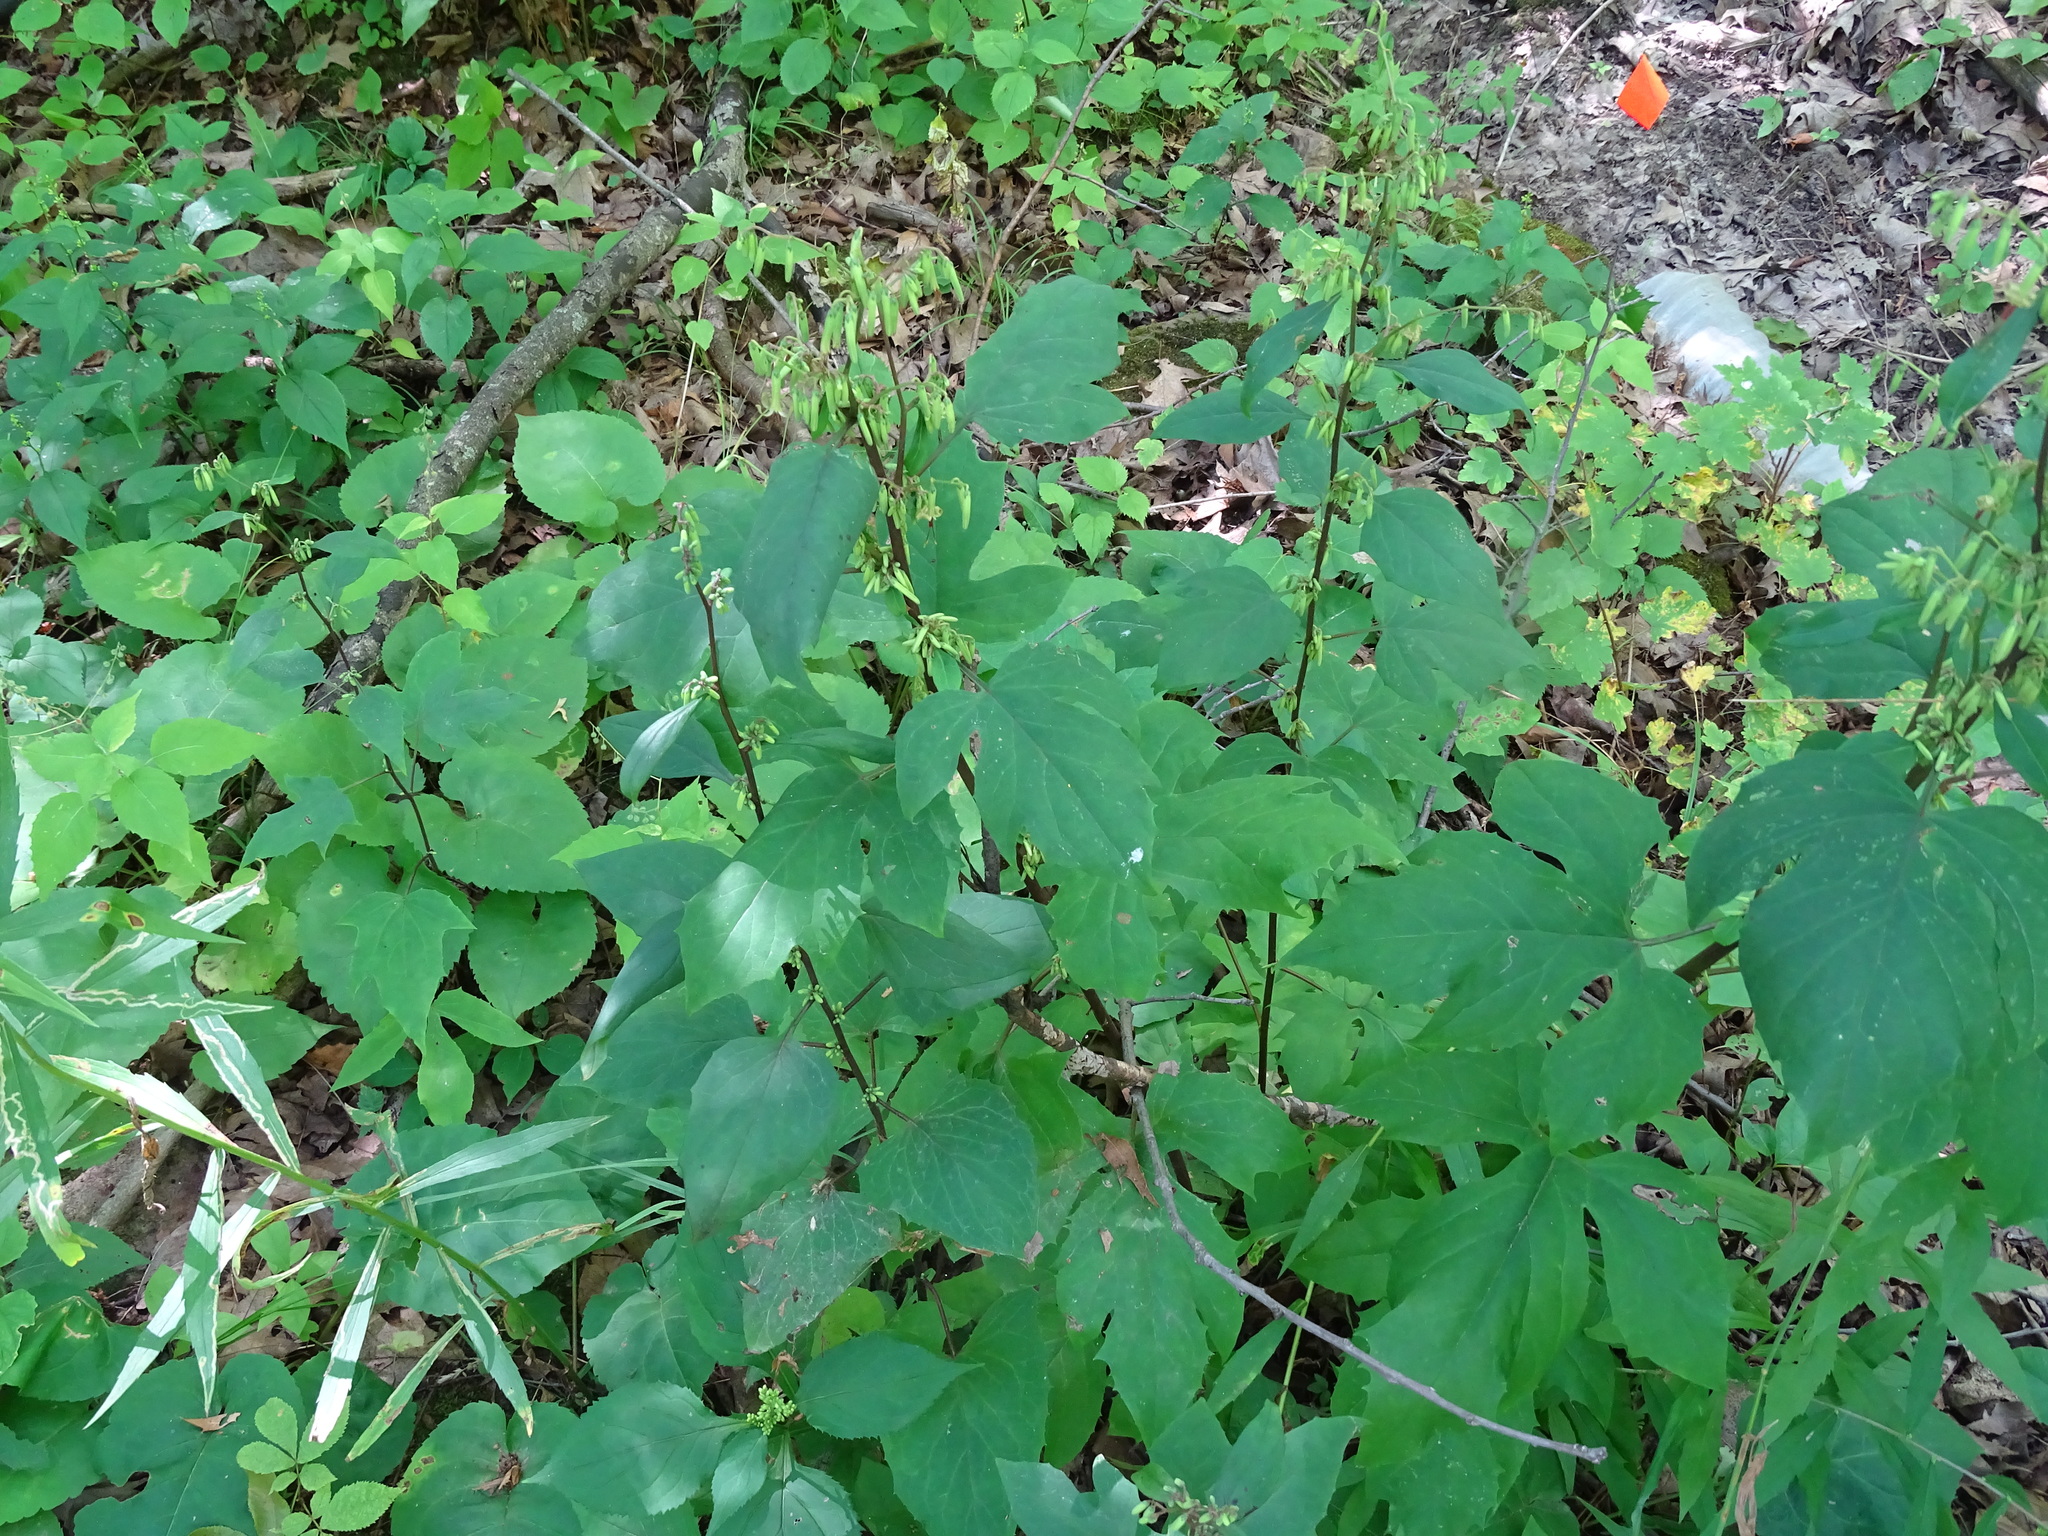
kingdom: Plantae
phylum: Tracheophyta
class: Magnoliopsida
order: Asterales
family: Asteraceae
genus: Nabalus
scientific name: Nabalus altissima
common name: Tall rattlesnakeroot
